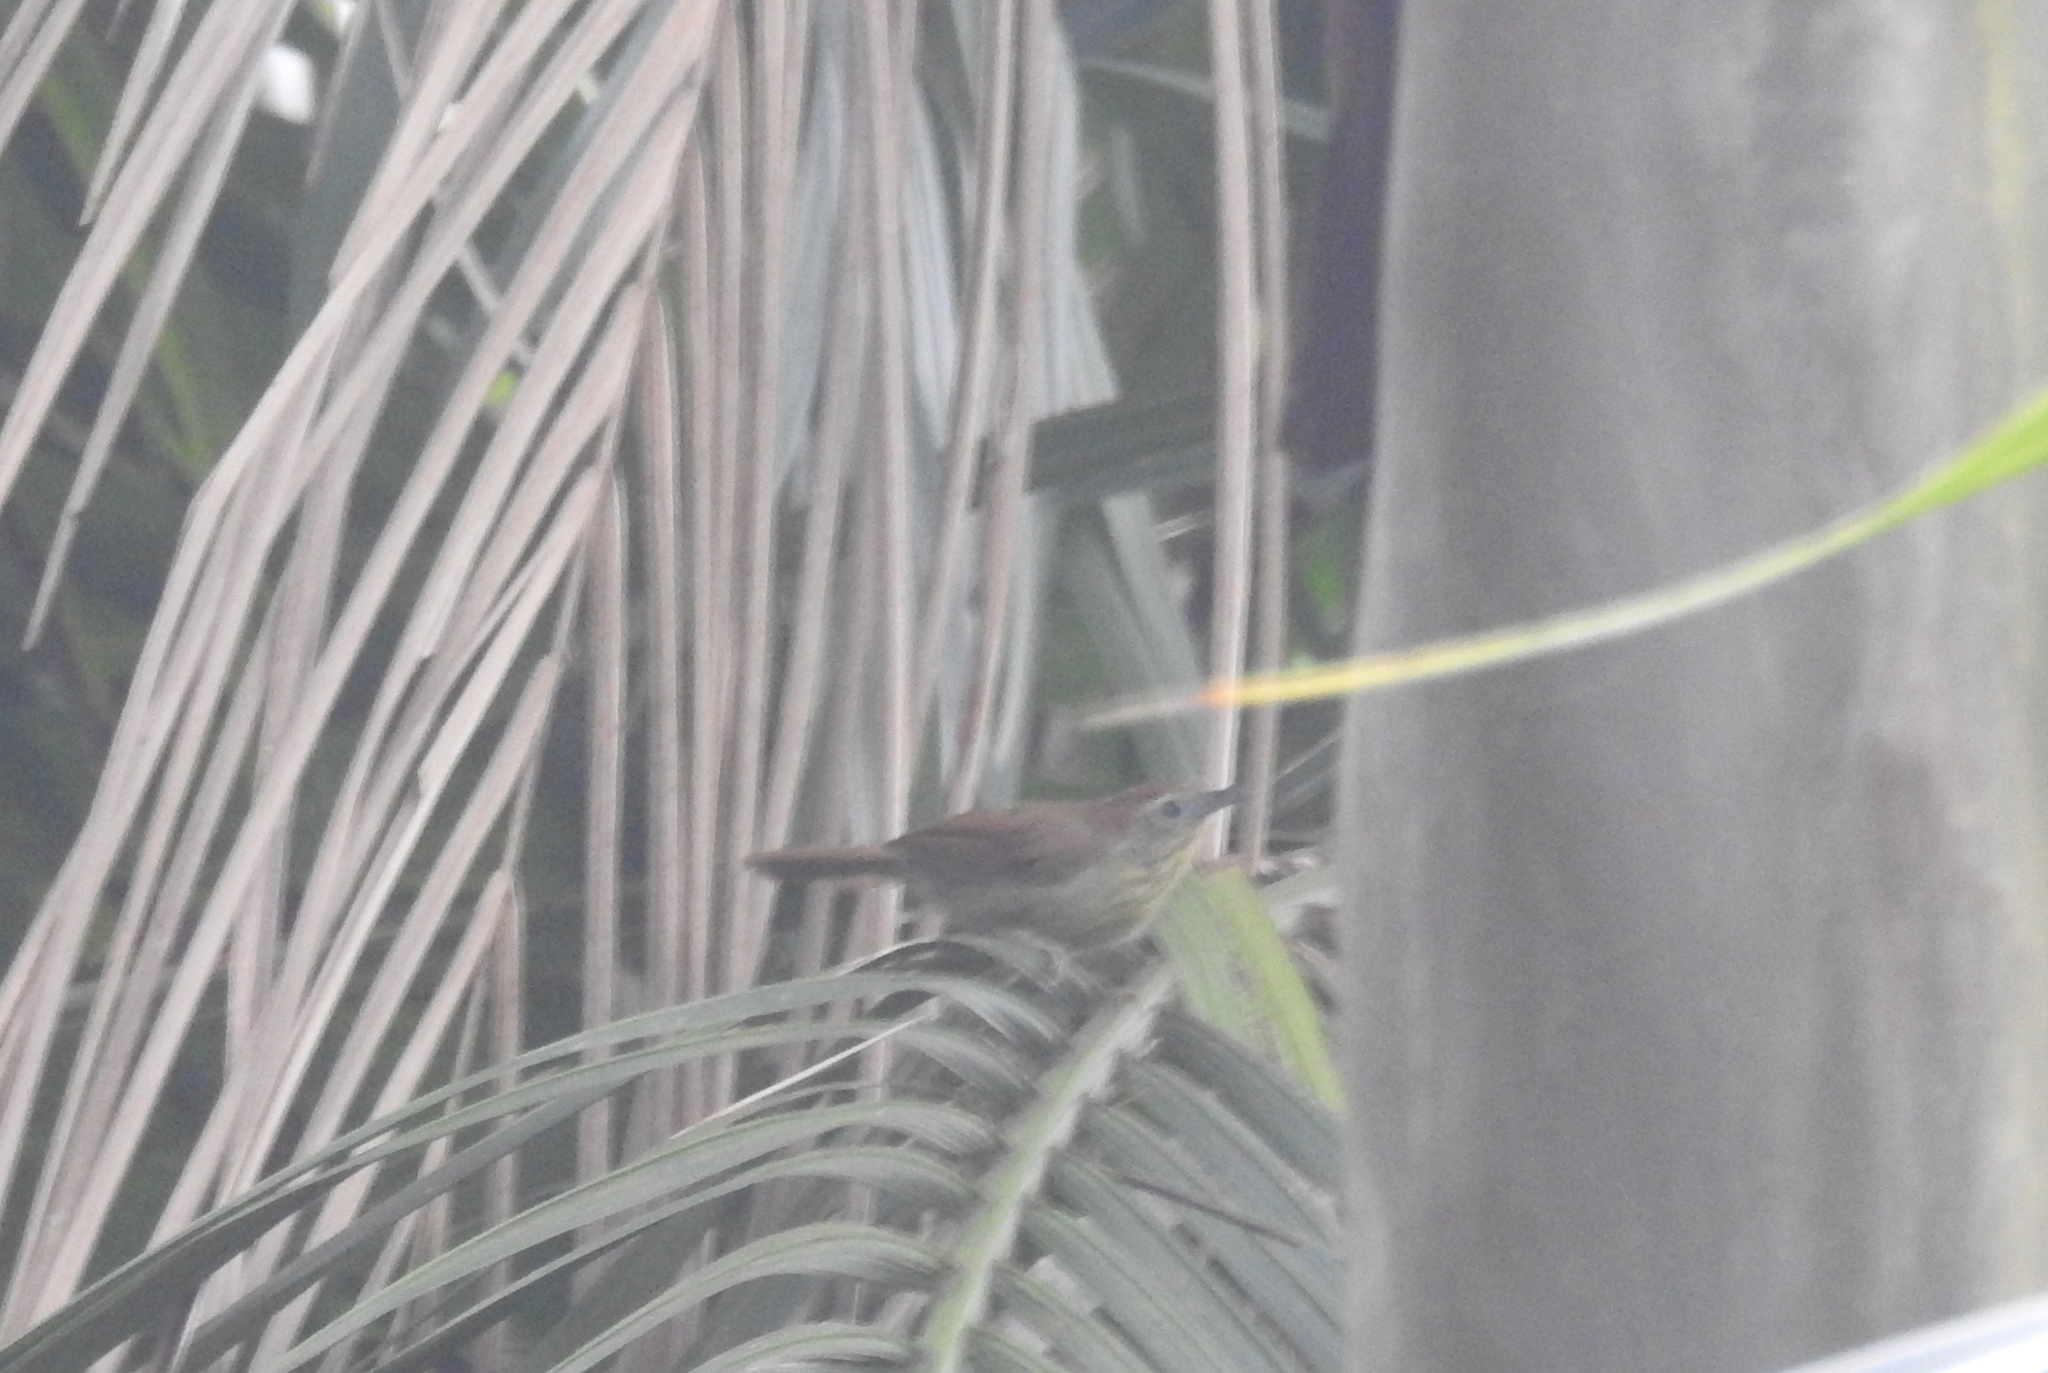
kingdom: Animalia
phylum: Chordata
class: Aves
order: Passeriformes
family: Timaliidae
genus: Macronus
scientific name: Macronus gularis
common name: Striped tit-babbler
